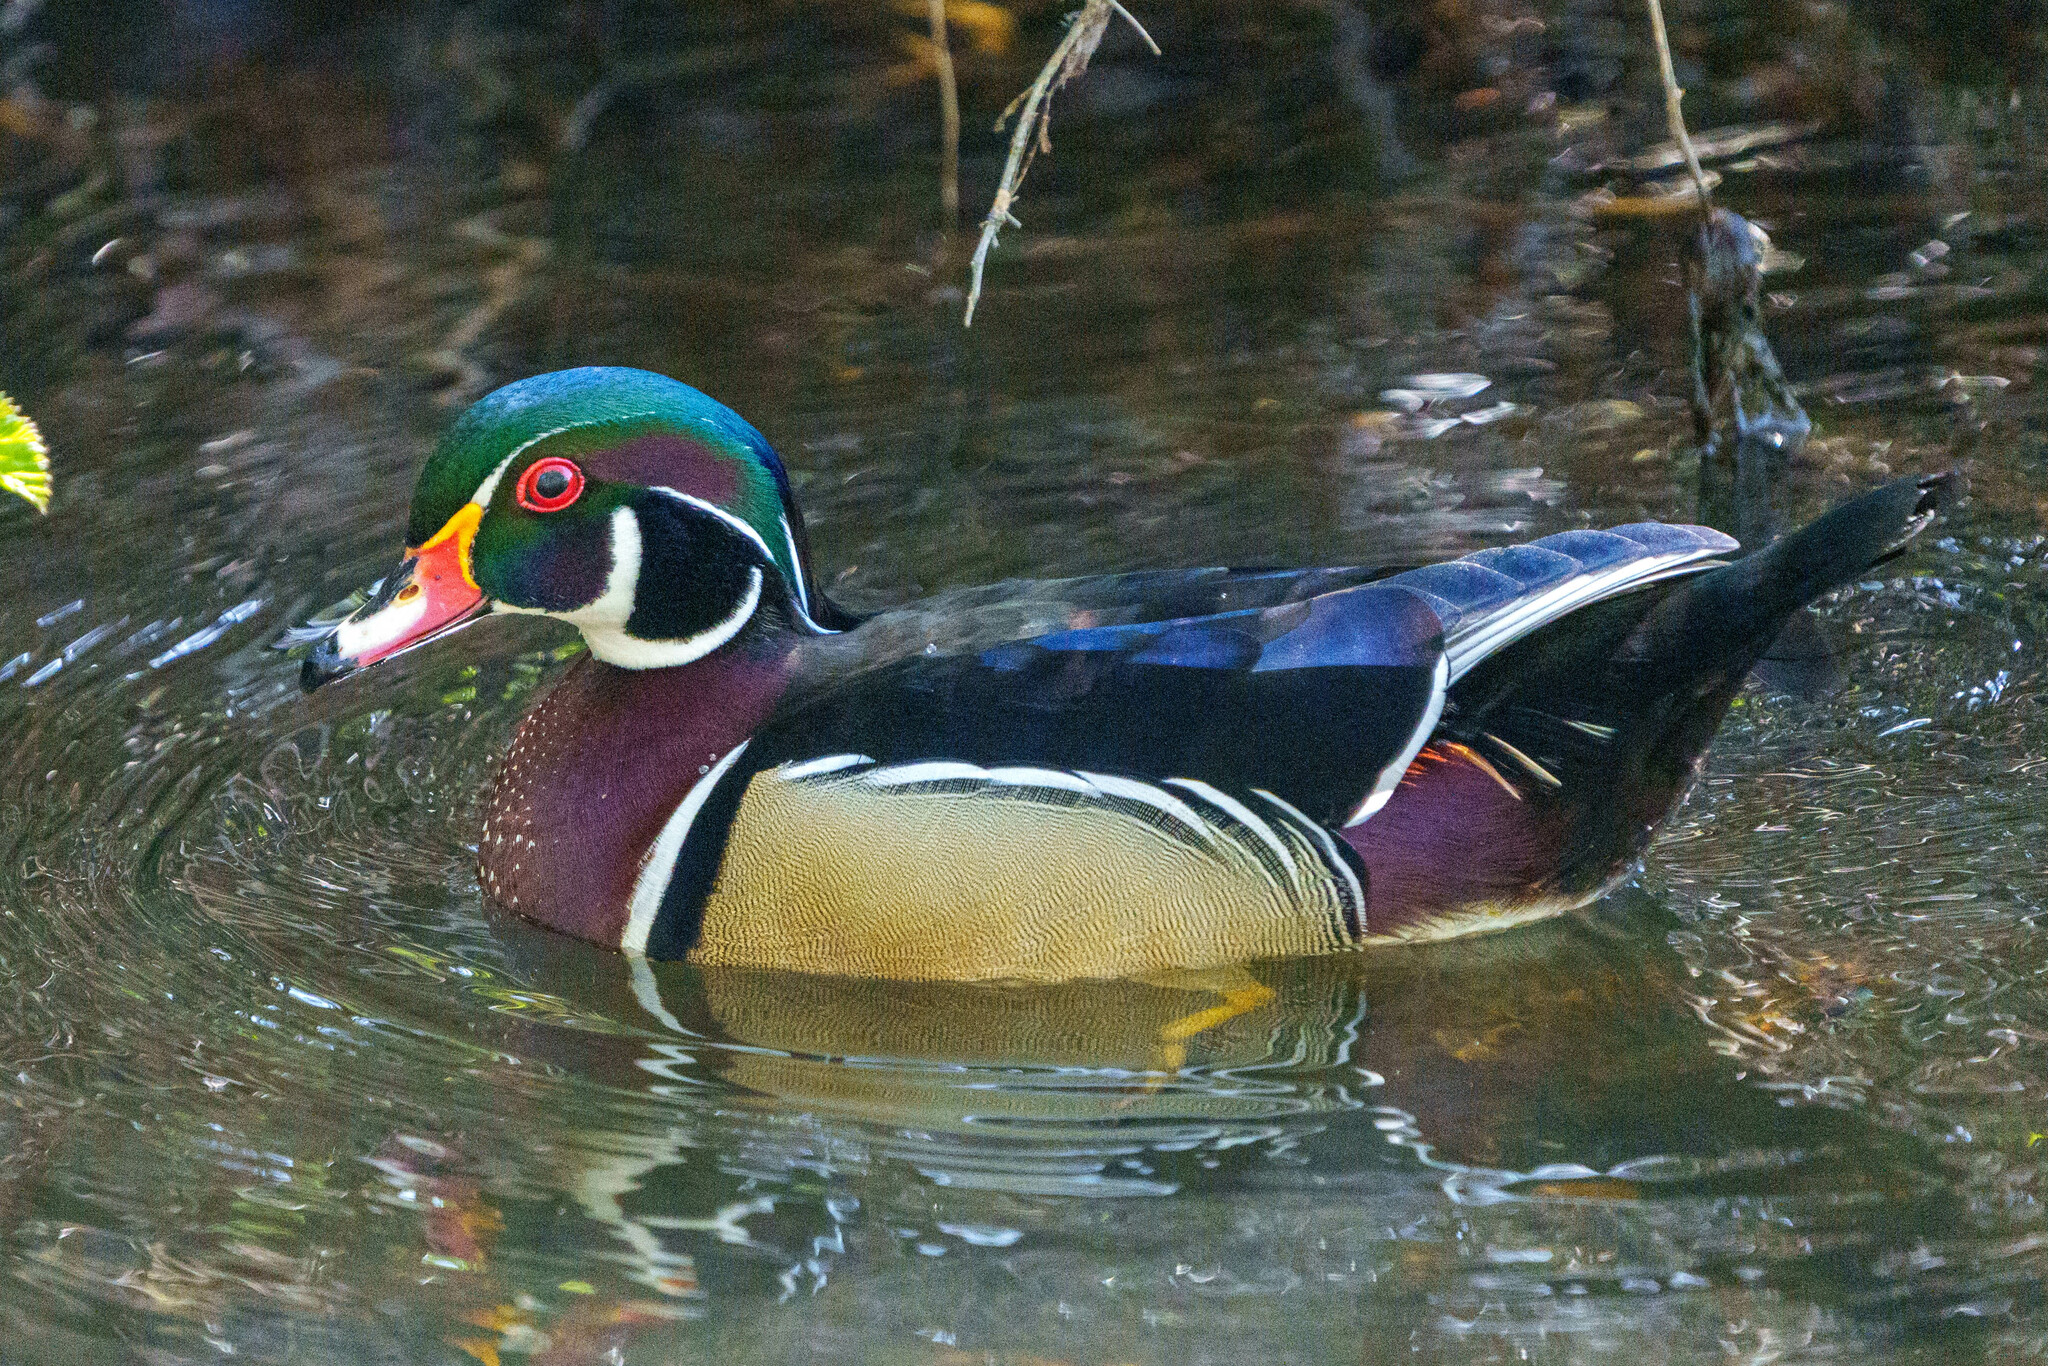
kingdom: Animalia
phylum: Chordata
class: Aves
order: Anseriformes
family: Anatidae
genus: Aix
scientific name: Aix sponsa
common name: Wood duck
